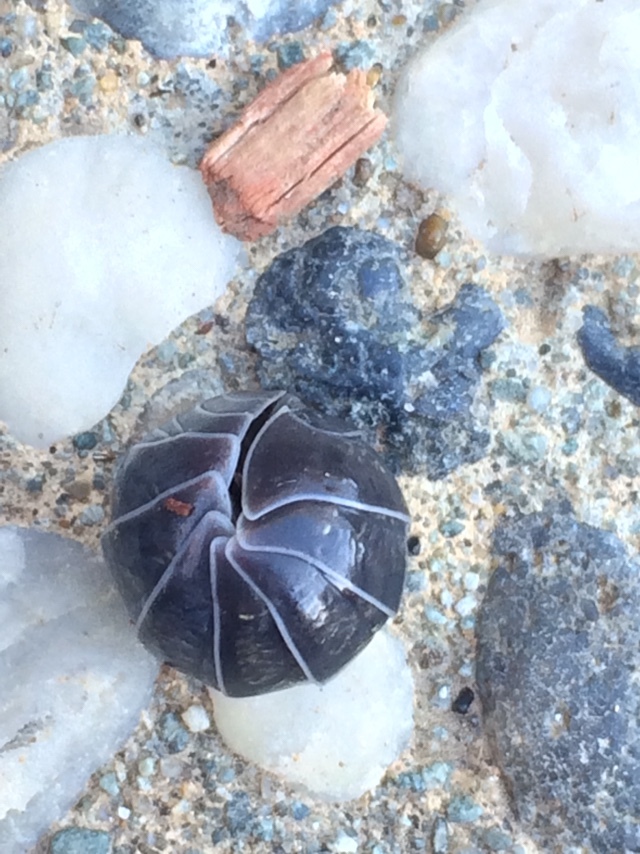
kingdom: Animalia
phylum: Arthropoda
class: Malacostraca
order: Isopoda
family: Armadillidiidae
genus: Armadillidium
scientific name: Armadillidium vulgare
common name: Common pill woodlouse
